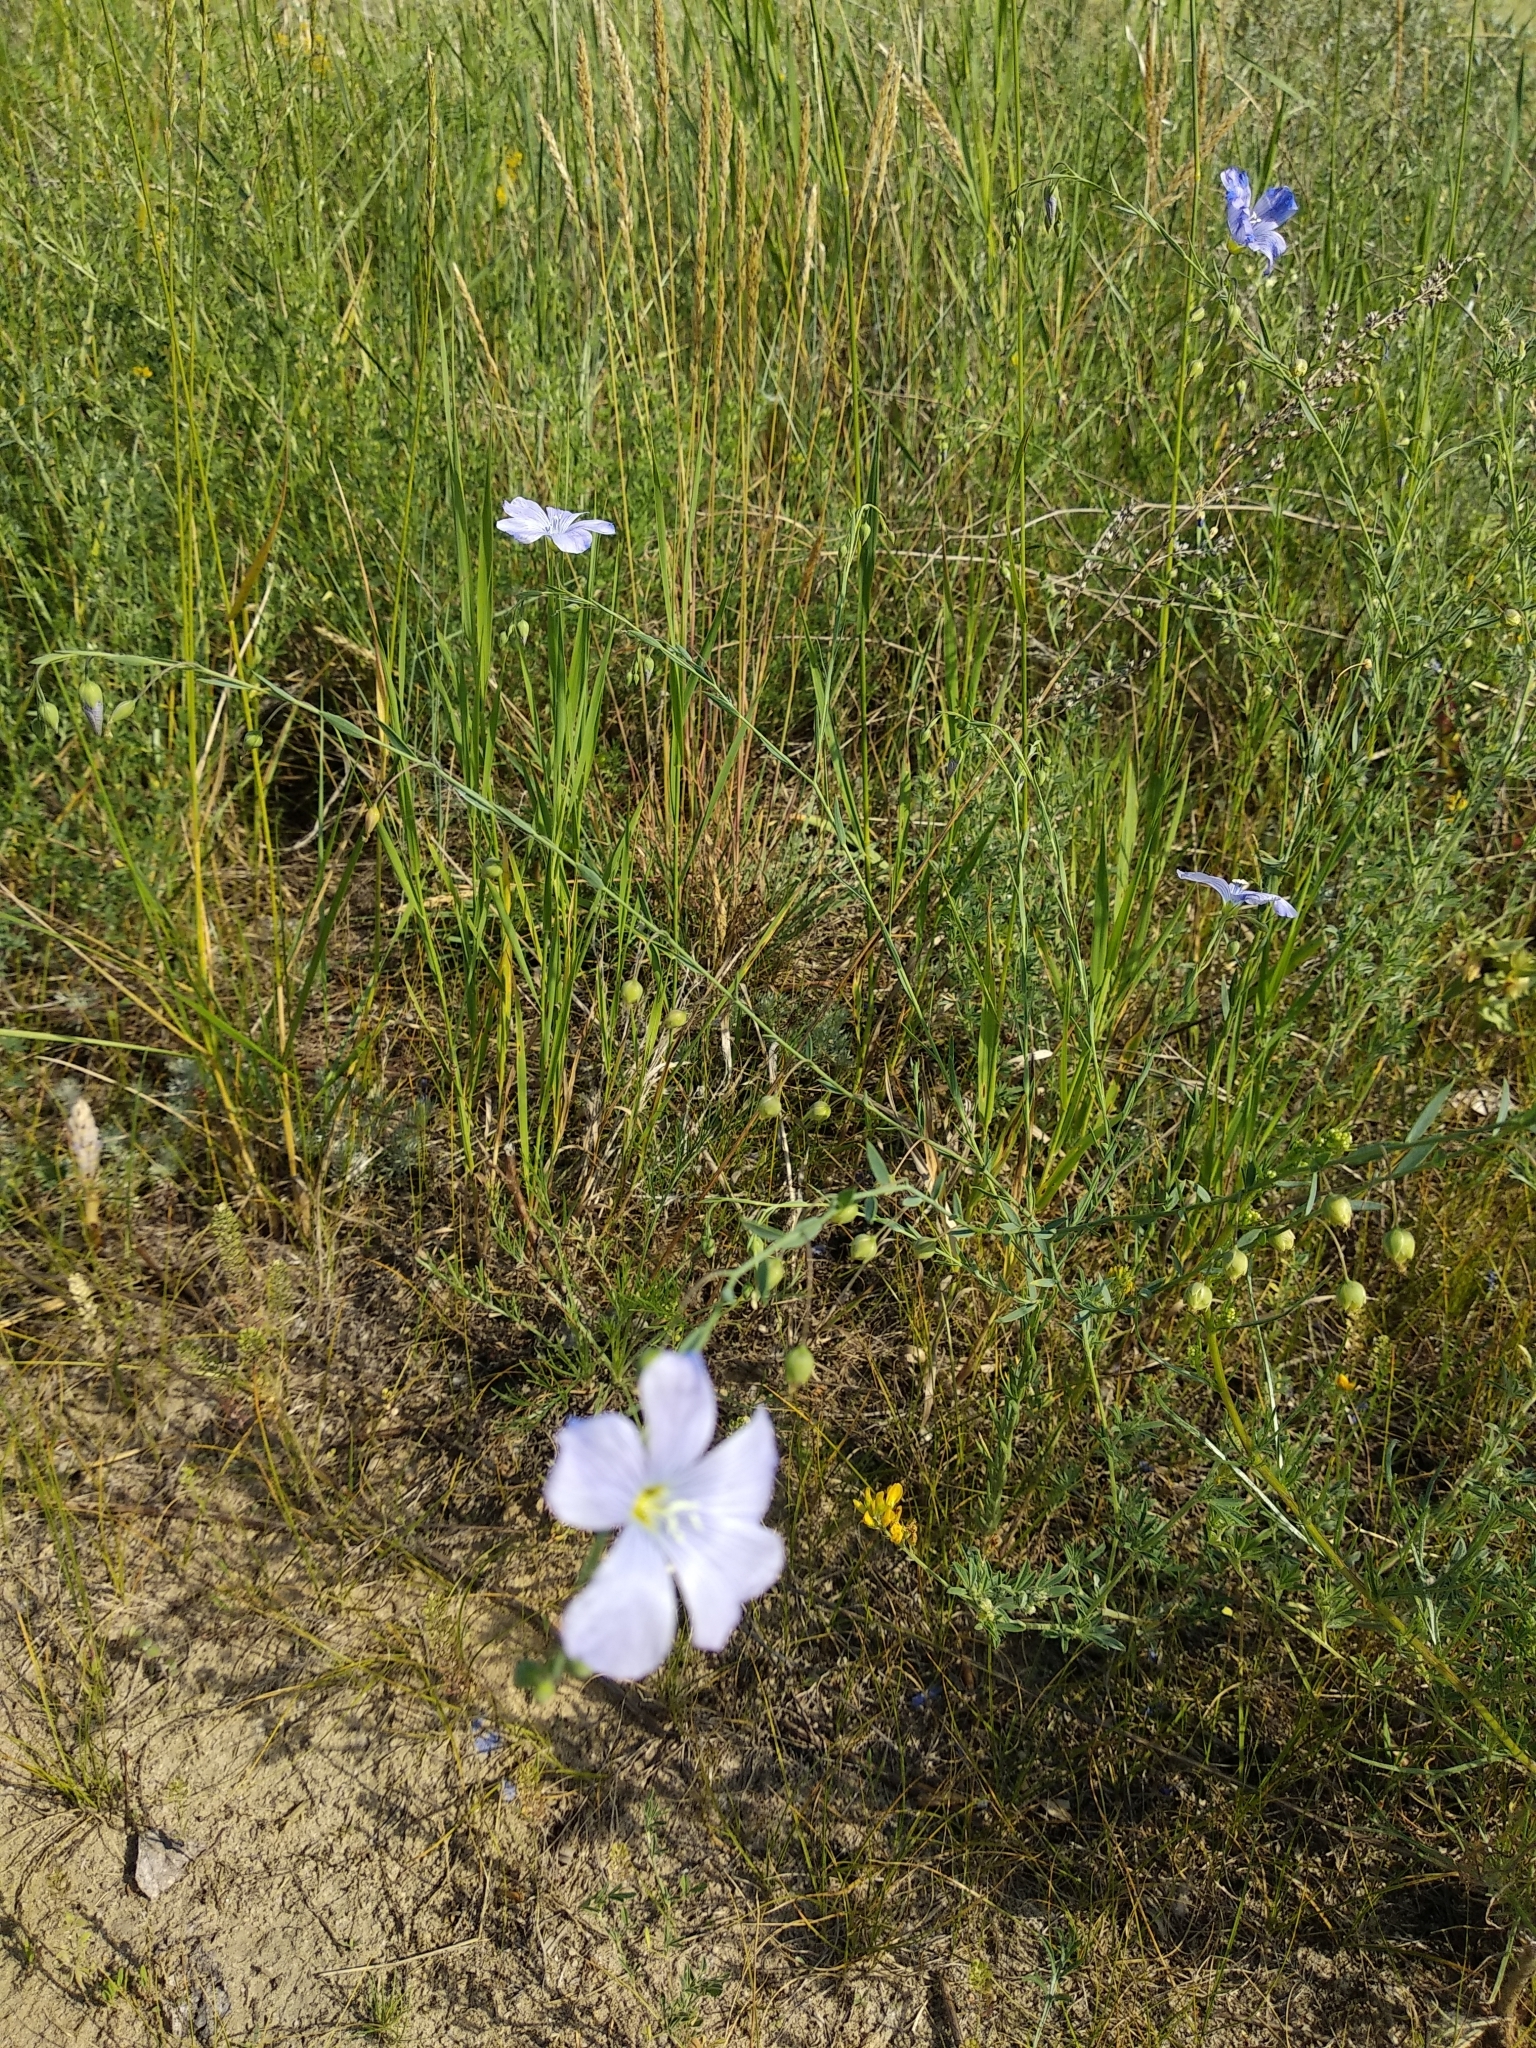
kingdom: Plantae
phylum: Tracheophyta
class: Magnoliopsida
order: Malpighiales
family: Linaceae
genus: Linum
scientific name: Linum
